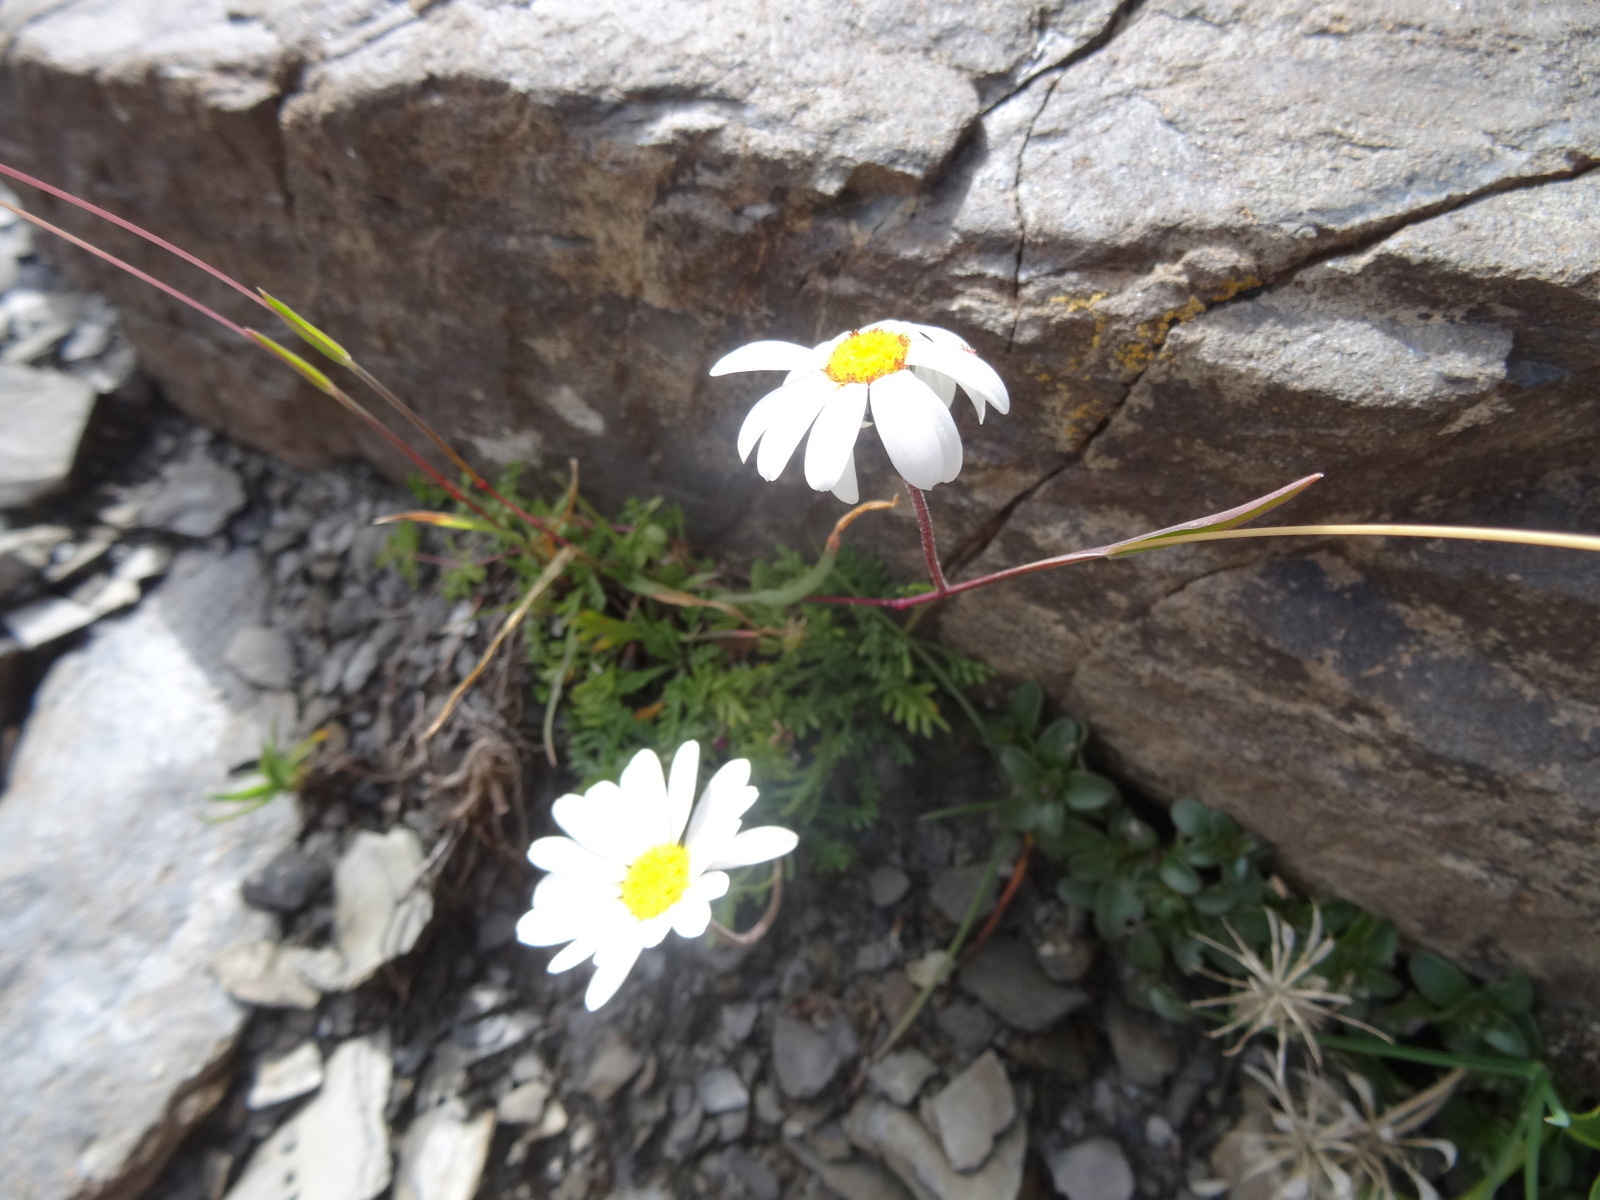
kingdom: Plantae
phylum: Tracheophyta
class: Magnoliopsida
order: Asterales
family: Asteraceae
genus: Leucanthemopsis
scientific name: Leucanthemopsis alpina
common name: Alpine moon daisy
